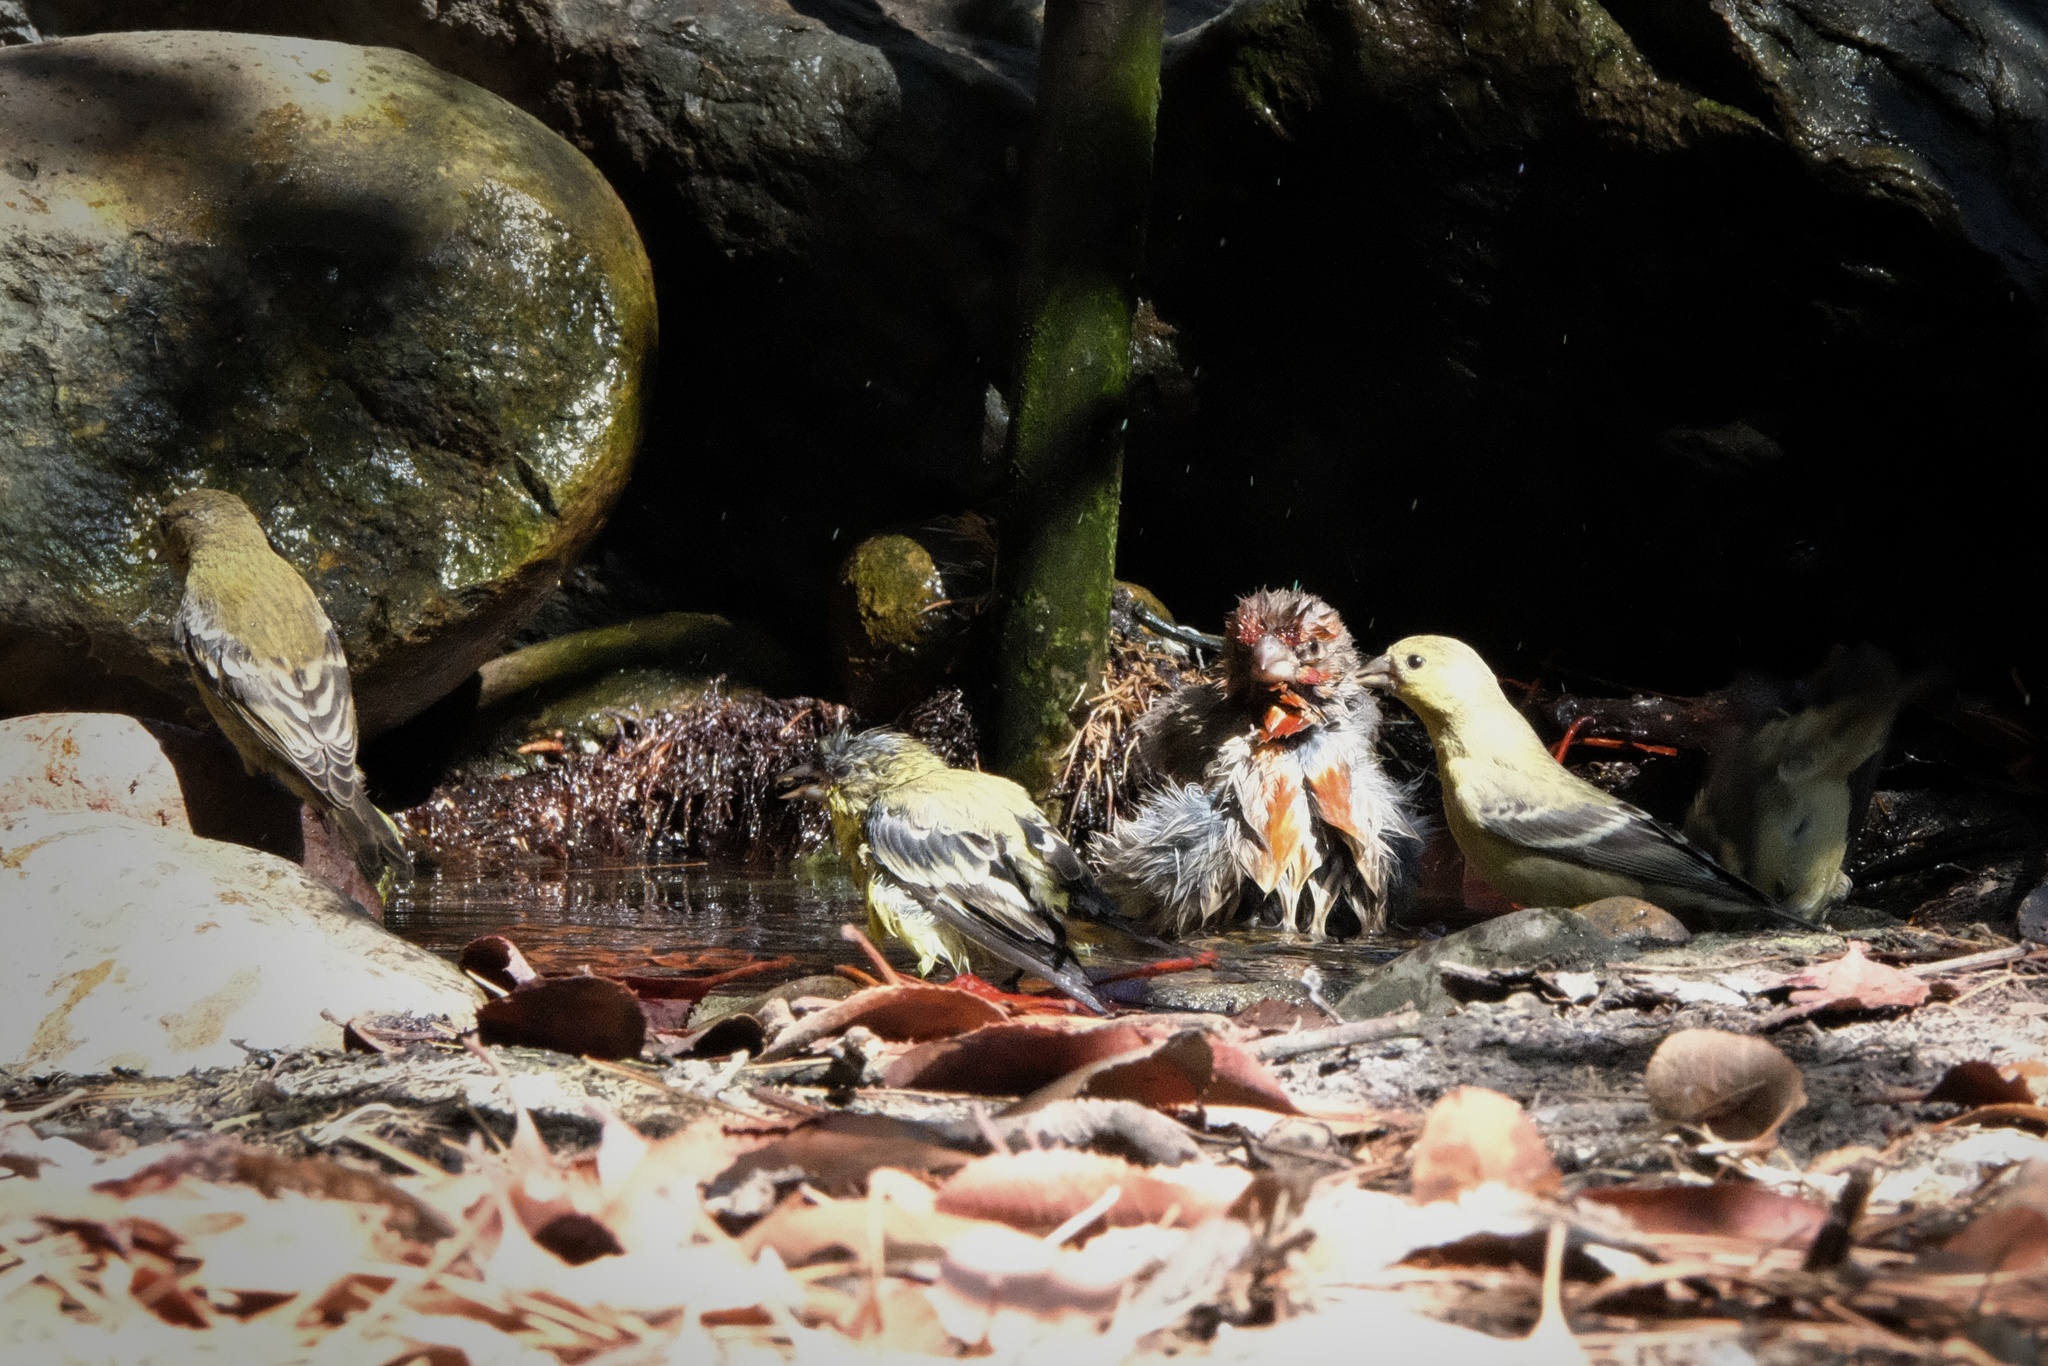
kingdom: Animalia
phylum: Chordata
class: Aves
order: Passeriformes
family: Fringillidae
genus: Haemorhous
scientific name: Haemorhous mexicanus
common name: House finch
